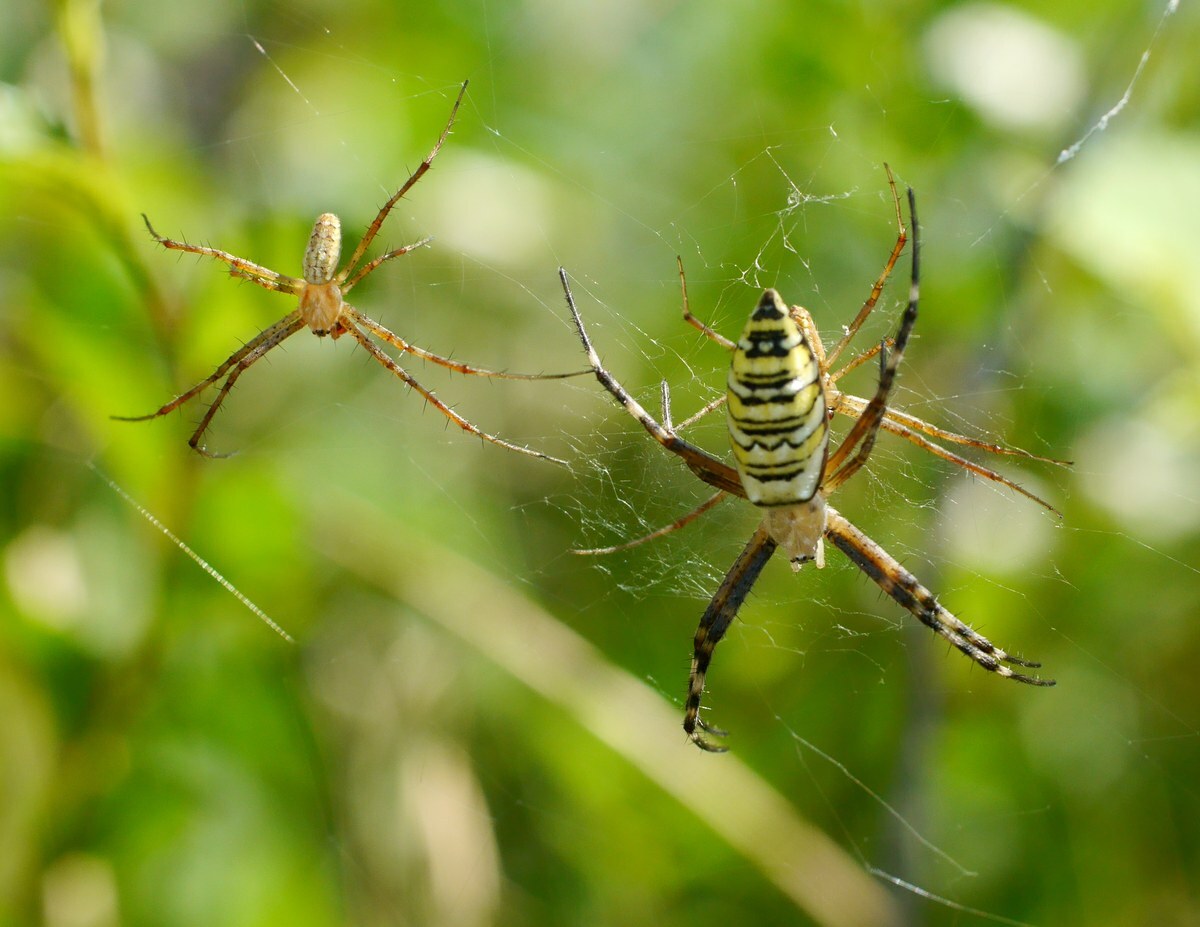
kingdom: Animalia
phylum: Arthropoda
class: Arachnida
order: Araneae
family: Araneidae
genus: Argiope
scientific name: Argiope bruennichi
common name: Wasp spider
